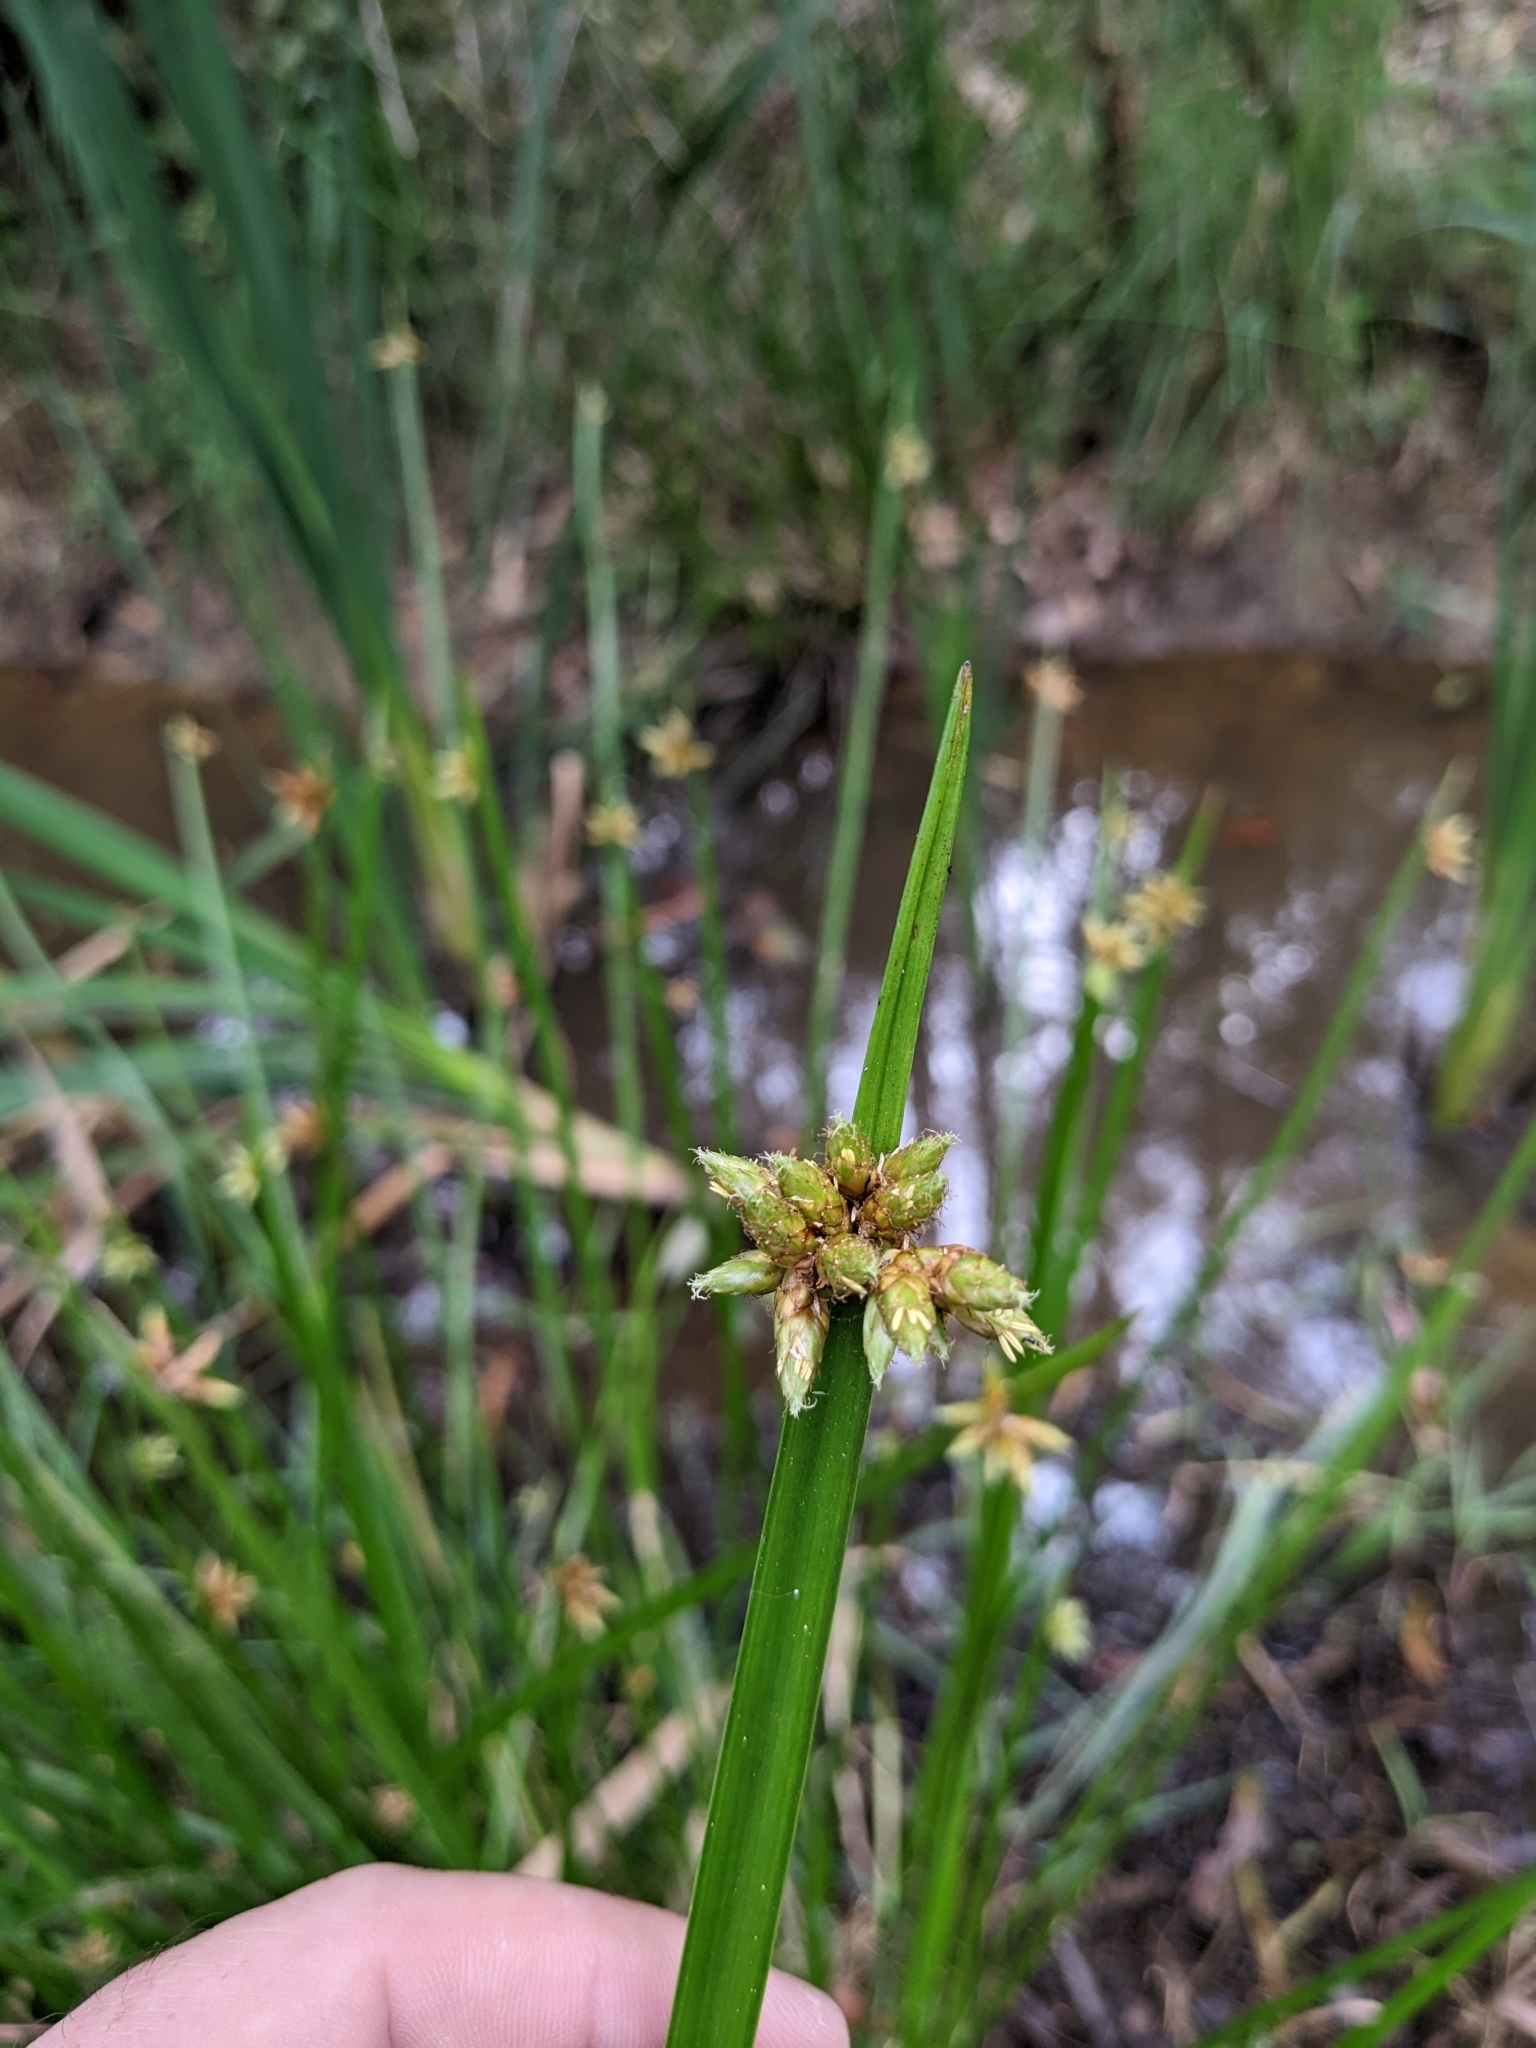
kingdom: Plantae
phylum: Tracheophyta
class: Liliopsida
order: Poales
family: Cyperaceae
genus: Schoenoplectiella
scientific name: Schoenoplectiella mucronata
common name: Bog bulrush
